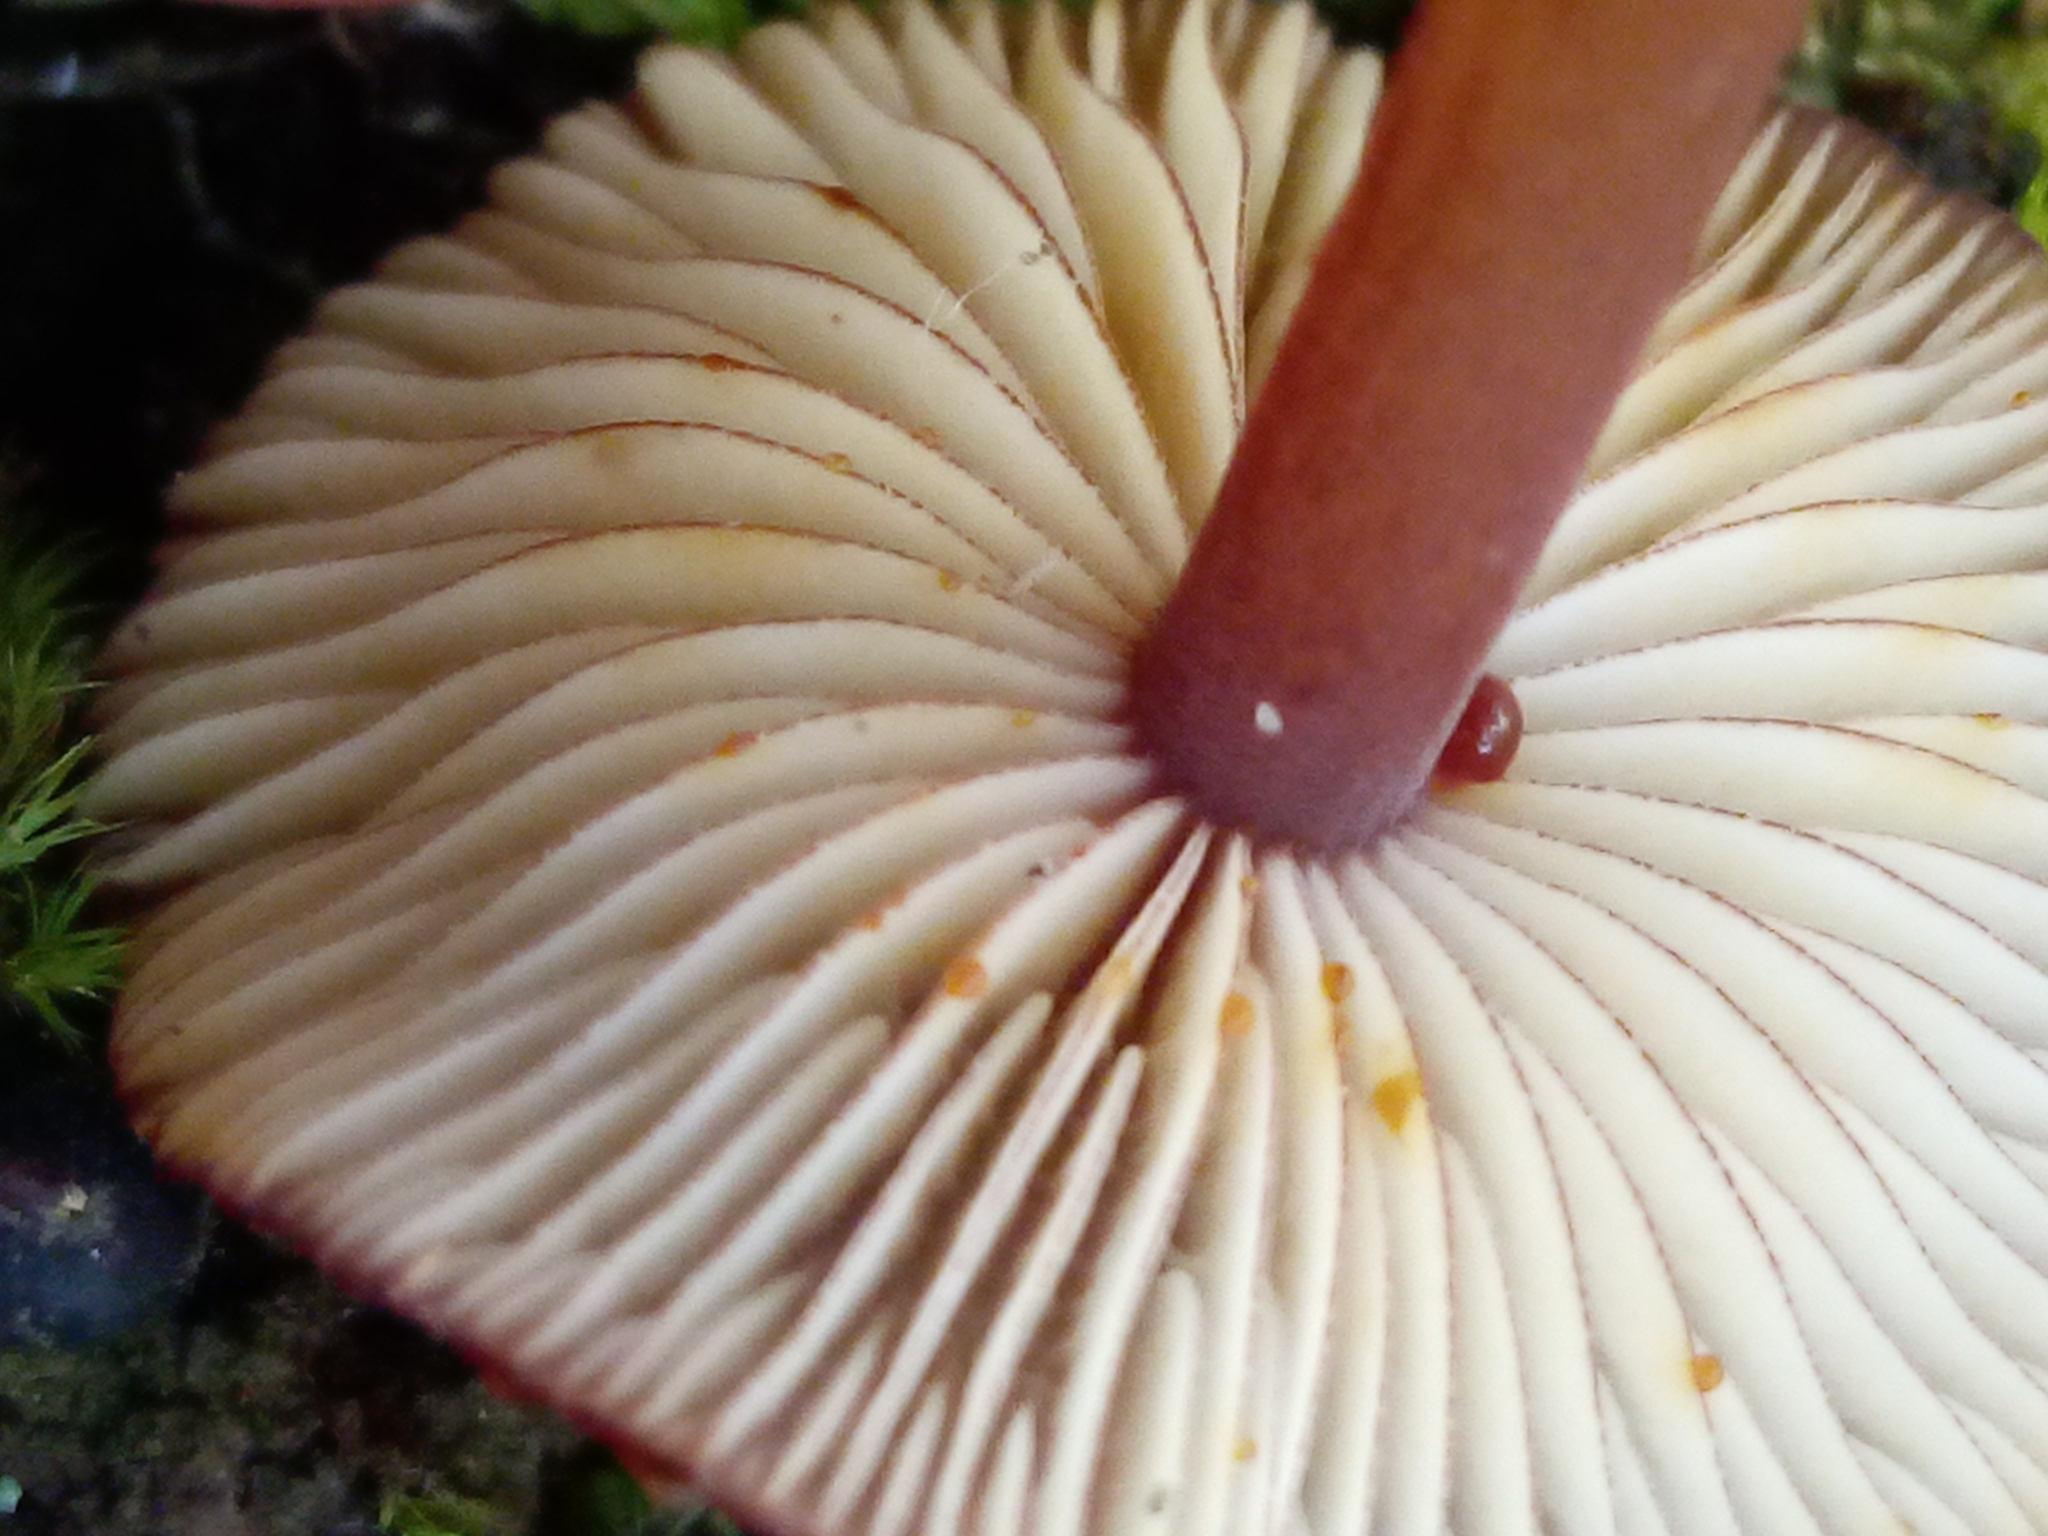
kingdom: Fungi
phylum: Basidiomycota
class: Agaricomycetes
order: Agaricales
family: Mycenaceae
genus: Mycena
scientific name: Mycena atkinsoniana
